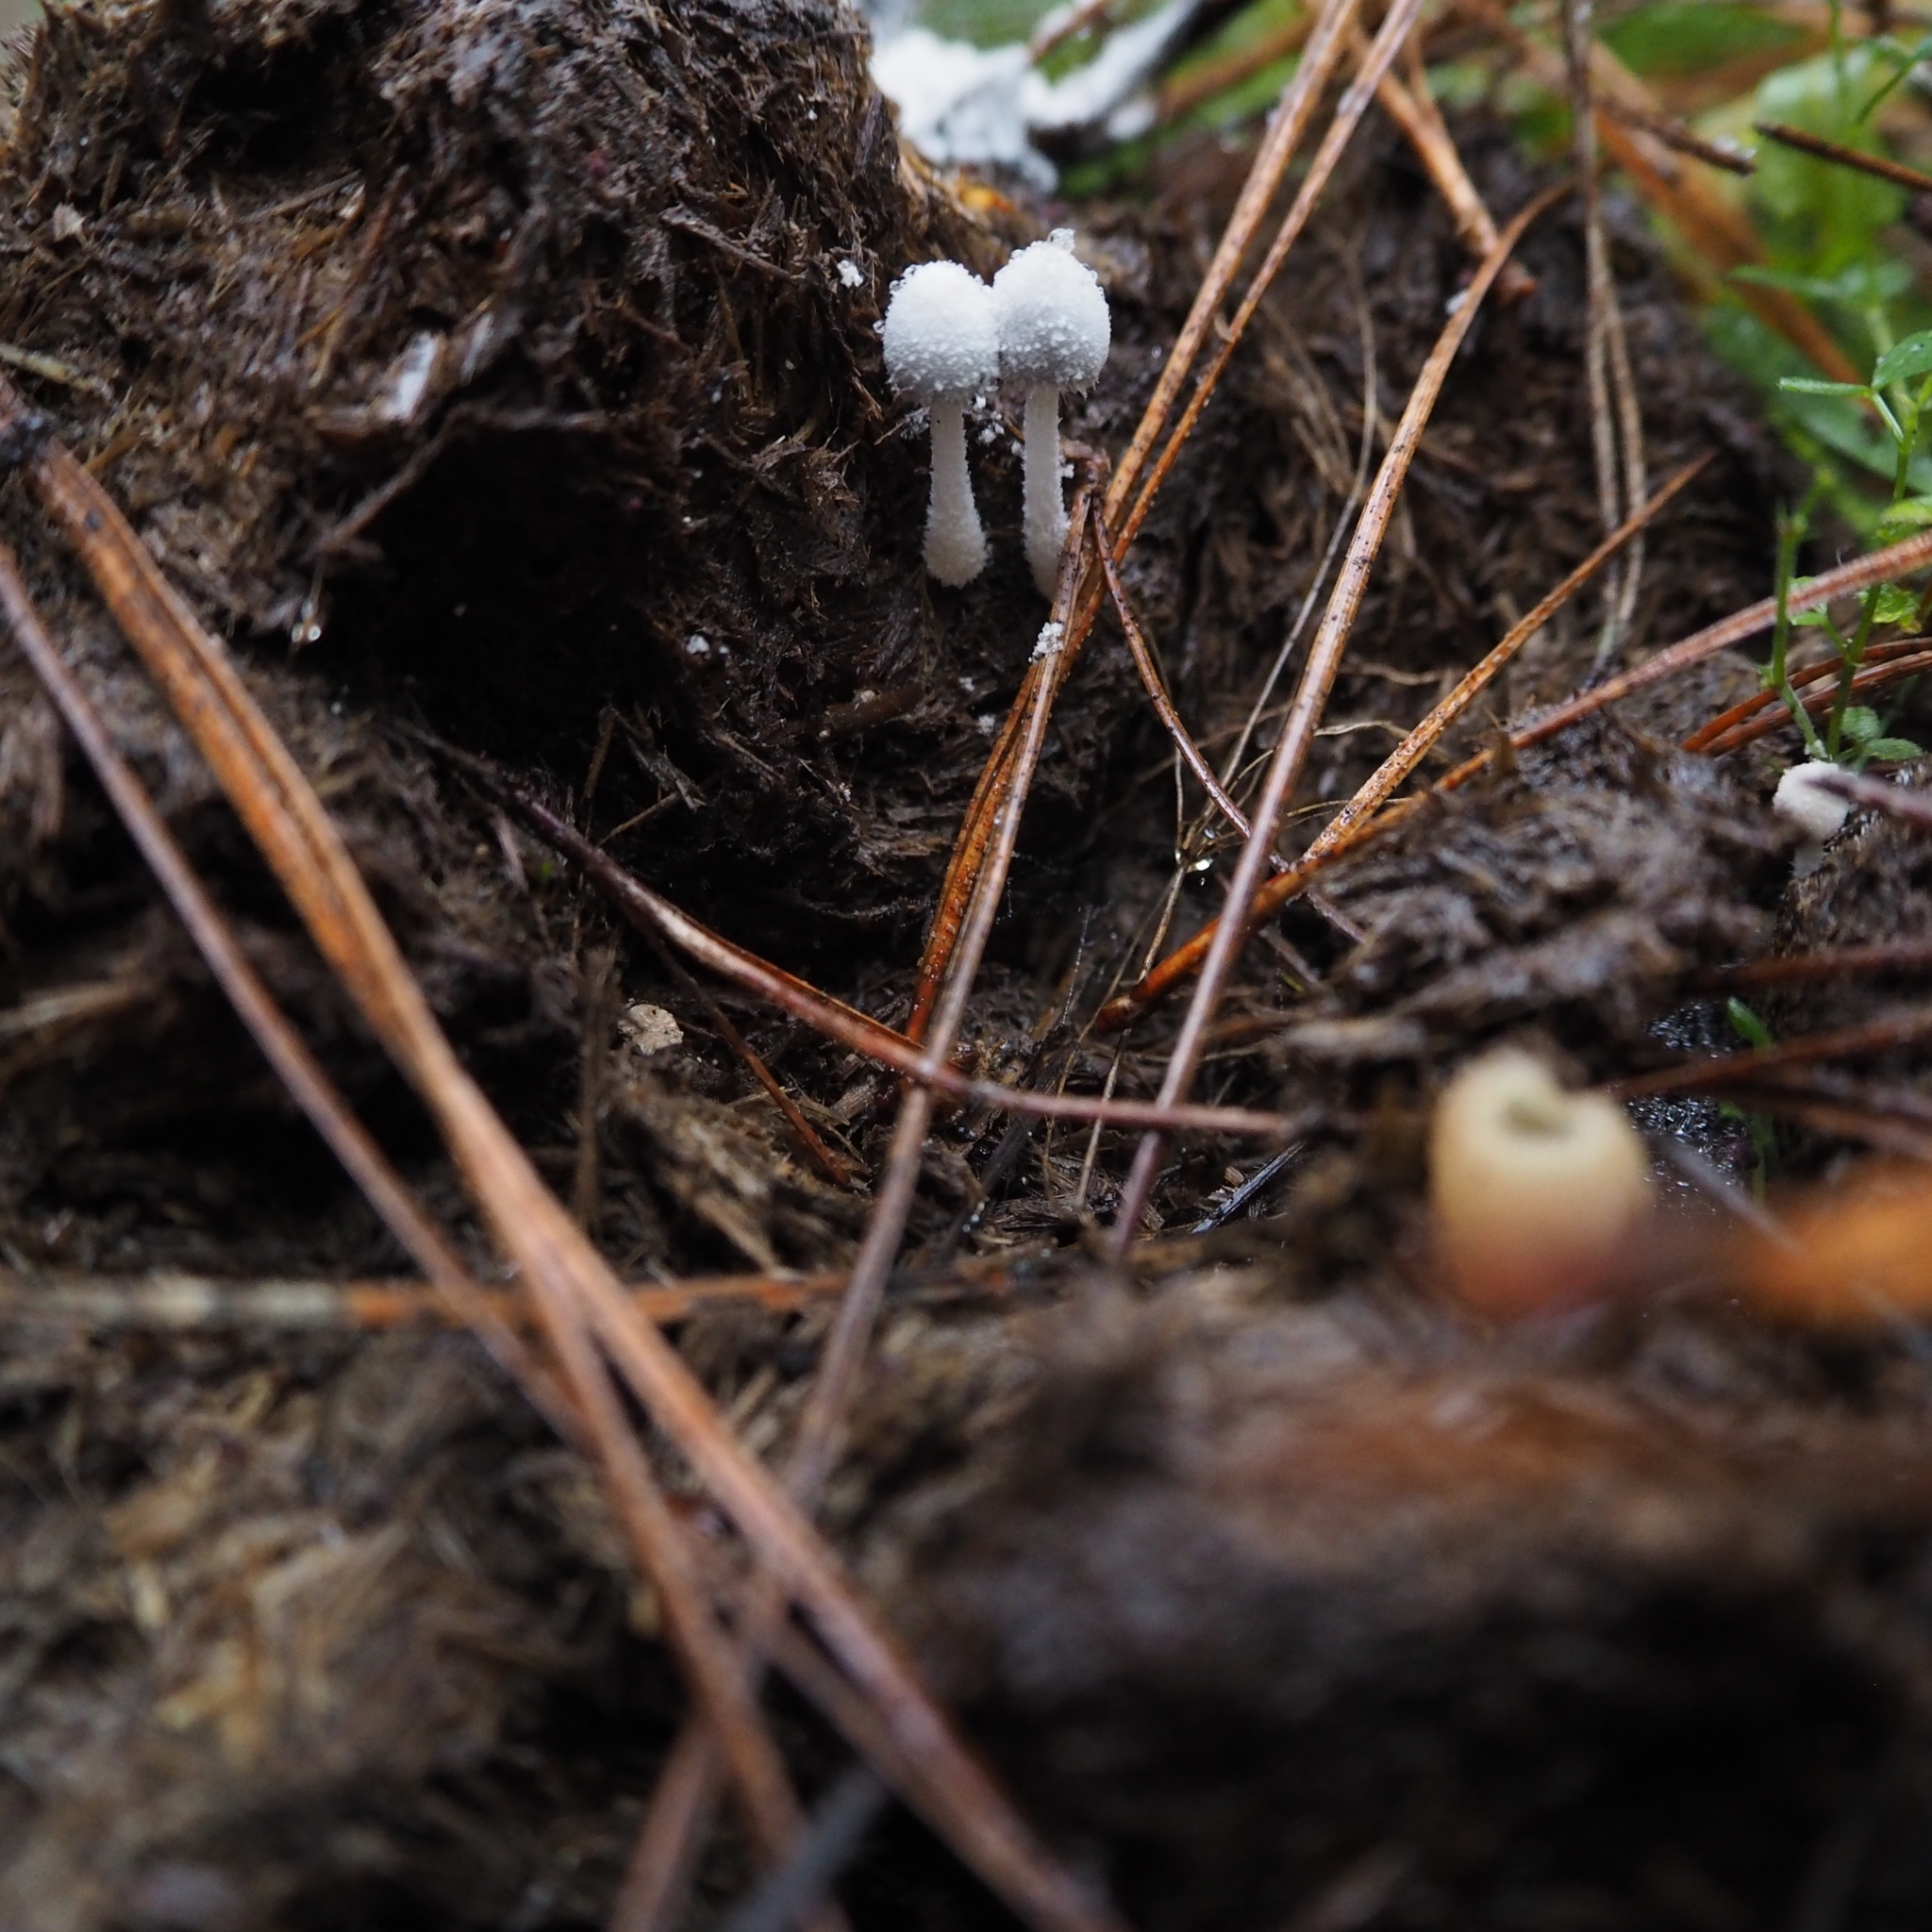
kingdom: Fungi
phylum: Basidiomycota
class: Agaricomycetes
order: Agaricales
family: Psathyrellaceae
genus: Coprinopsis
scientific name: Coprinopsis nivea
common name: Snowy inkcap
